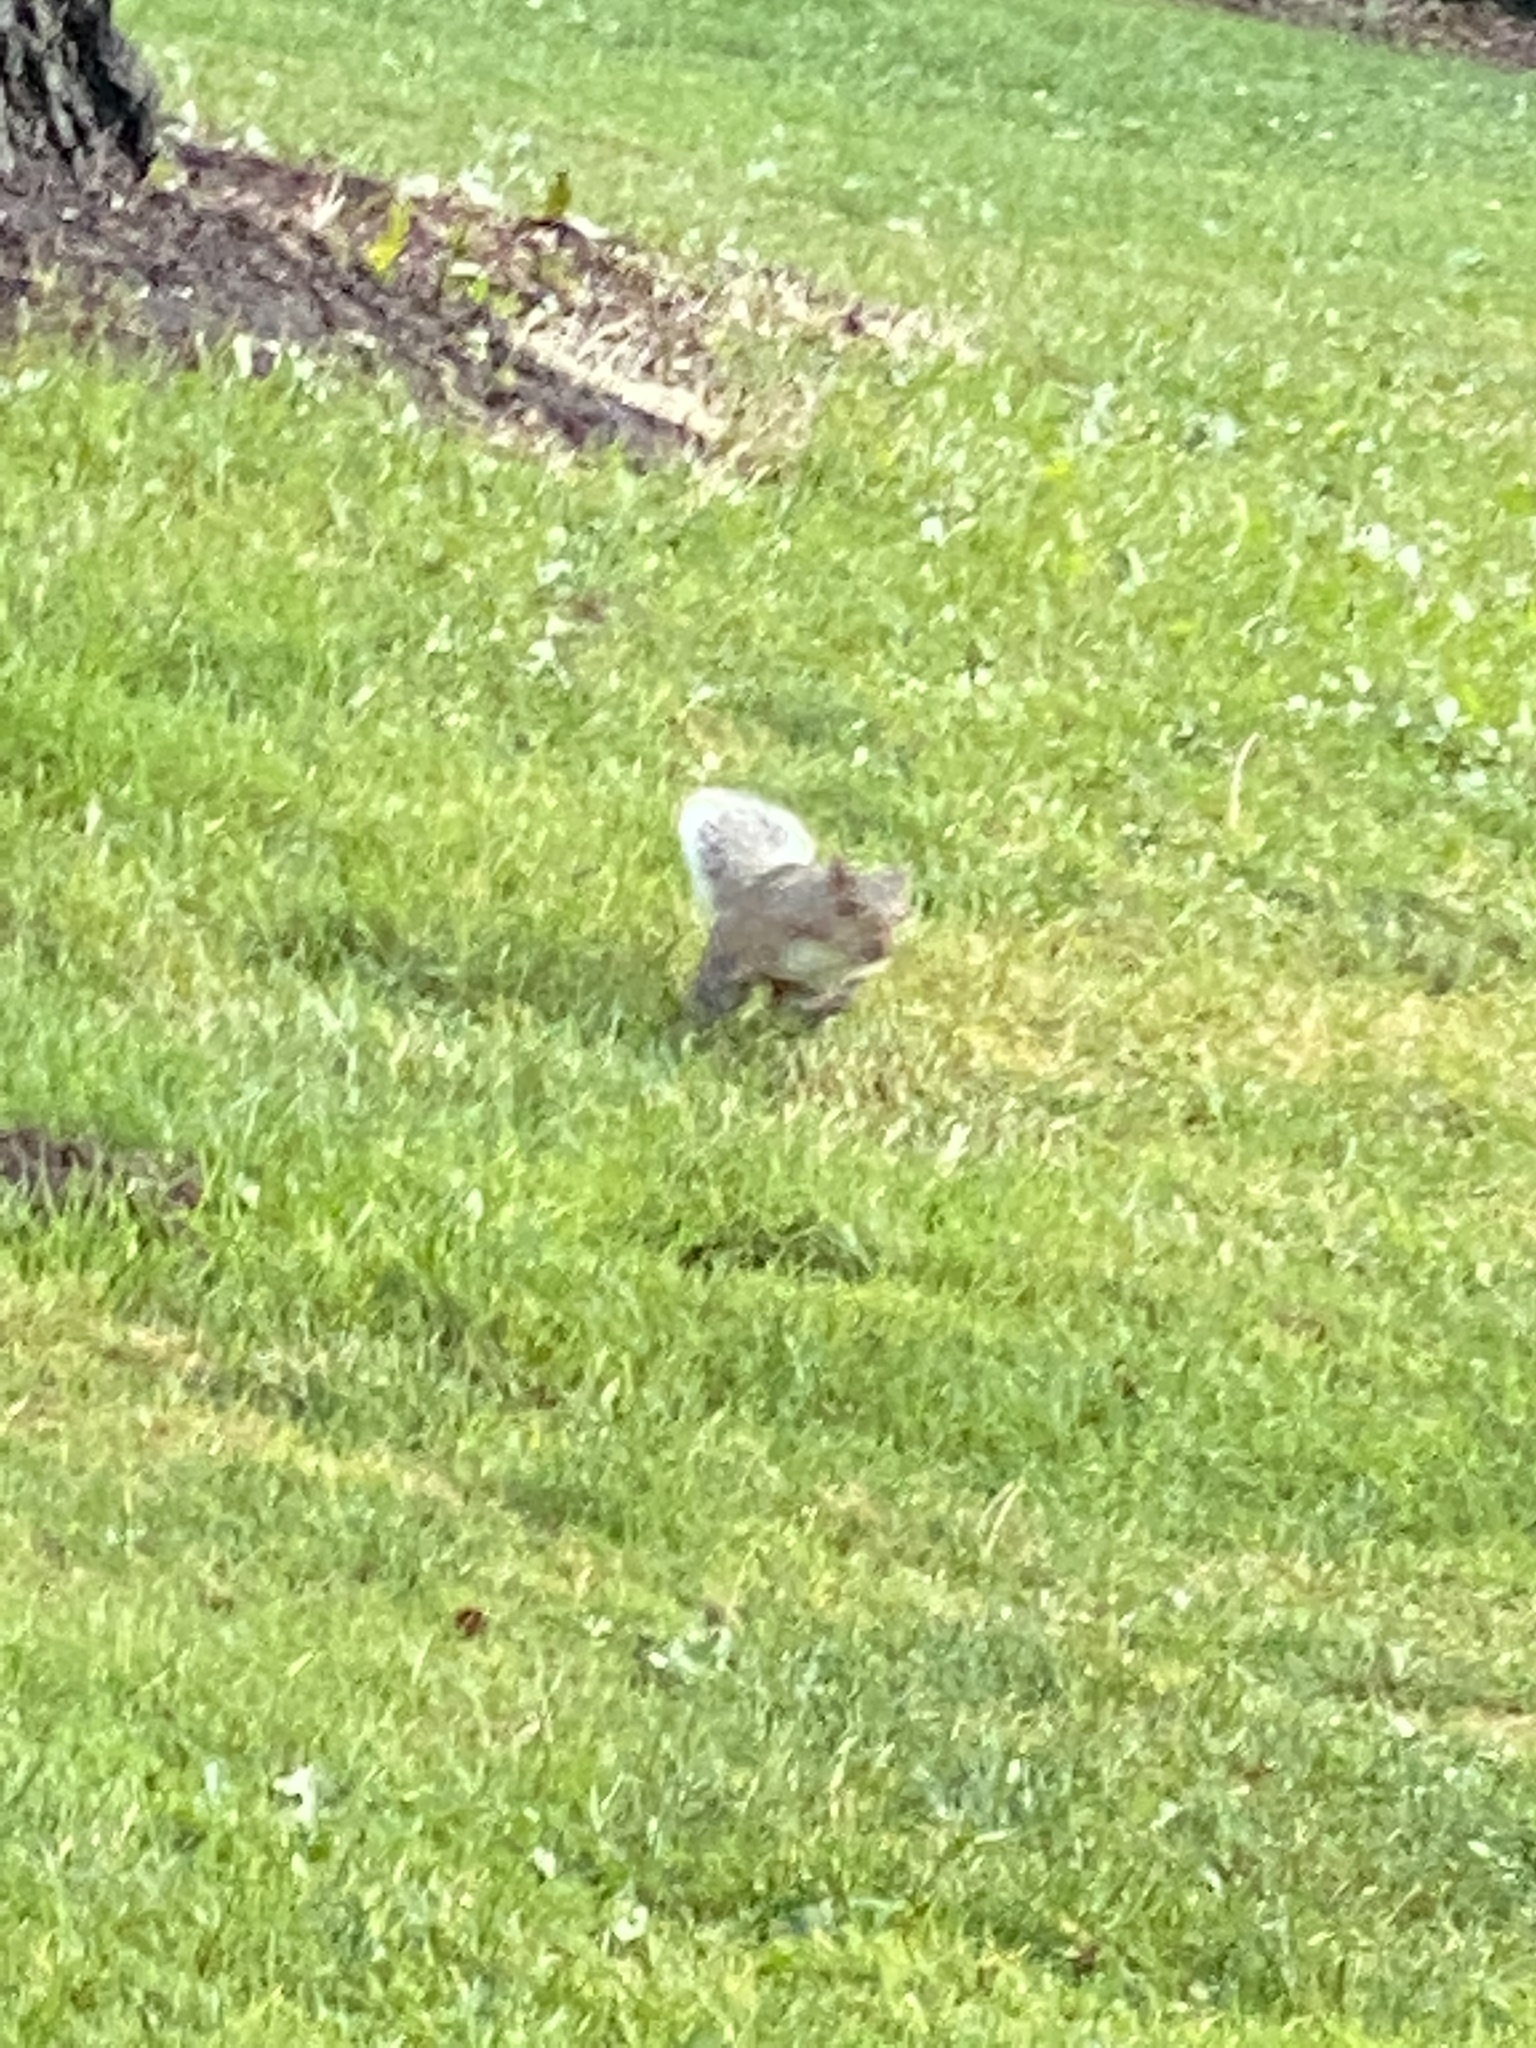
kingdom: Animalia
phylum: Chordata
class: Mammalia
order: Rodentia
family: Sciuridae
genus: Sciurus
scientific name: Sciurus carolinensis
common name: Eastern gray squirrel
